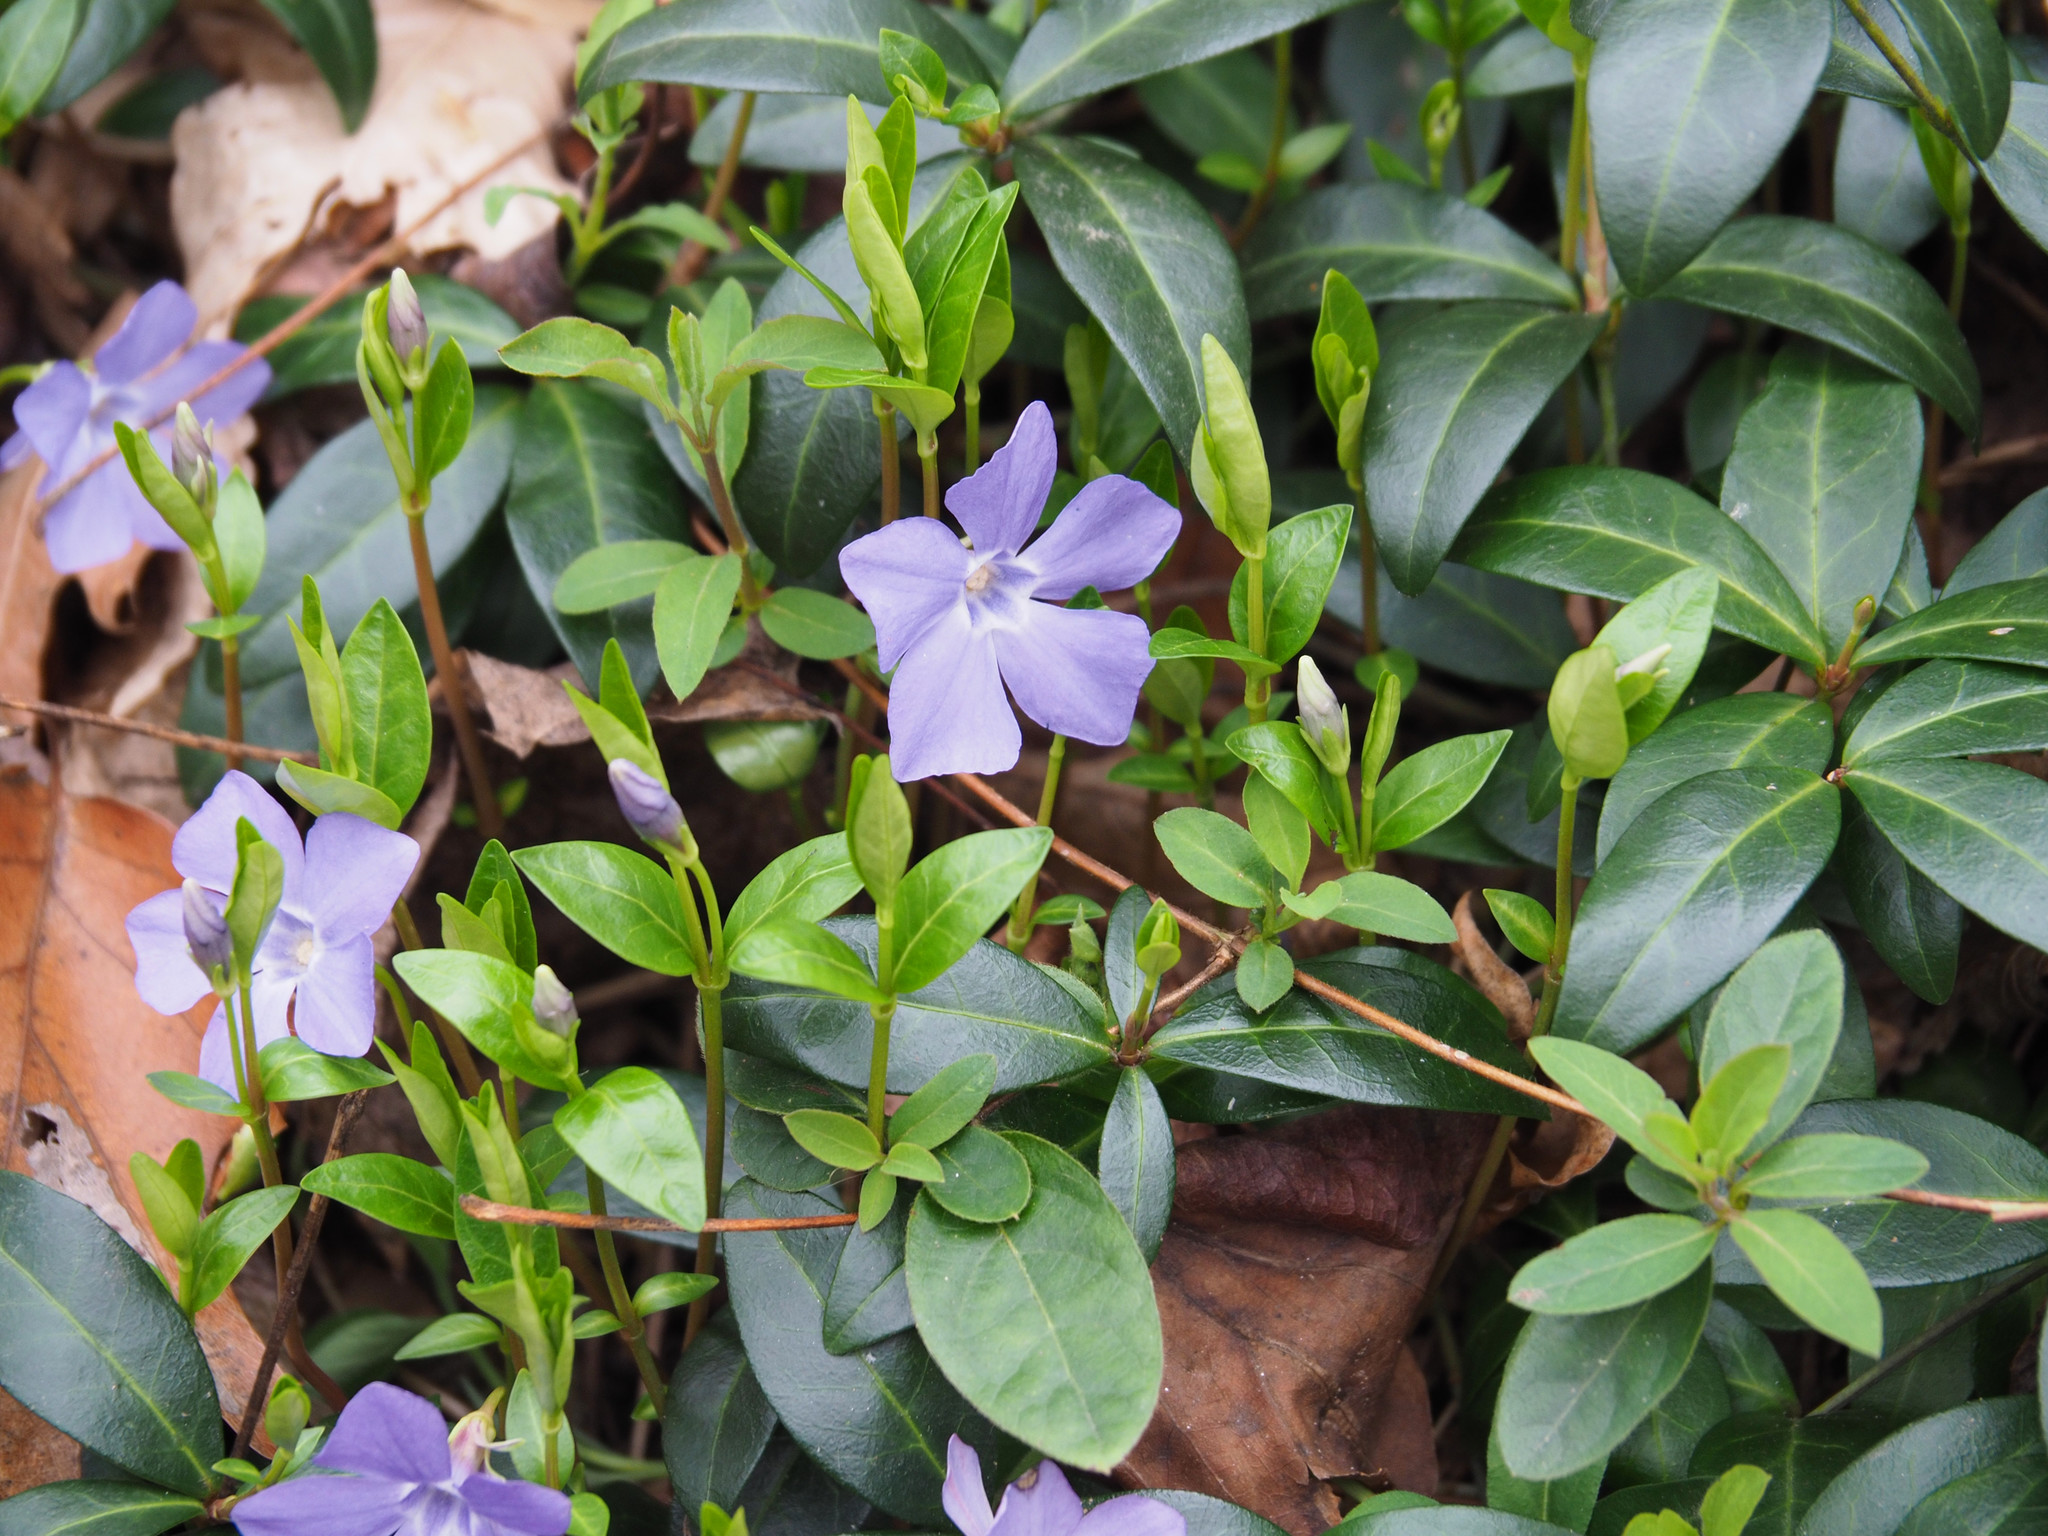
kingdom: Plantae
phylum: Tracheophyta
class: Magnoliopsida
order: Gentianales
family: Apocynaceae
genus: Vinca
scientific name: Vinca minor
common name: Lesser periwinkle
